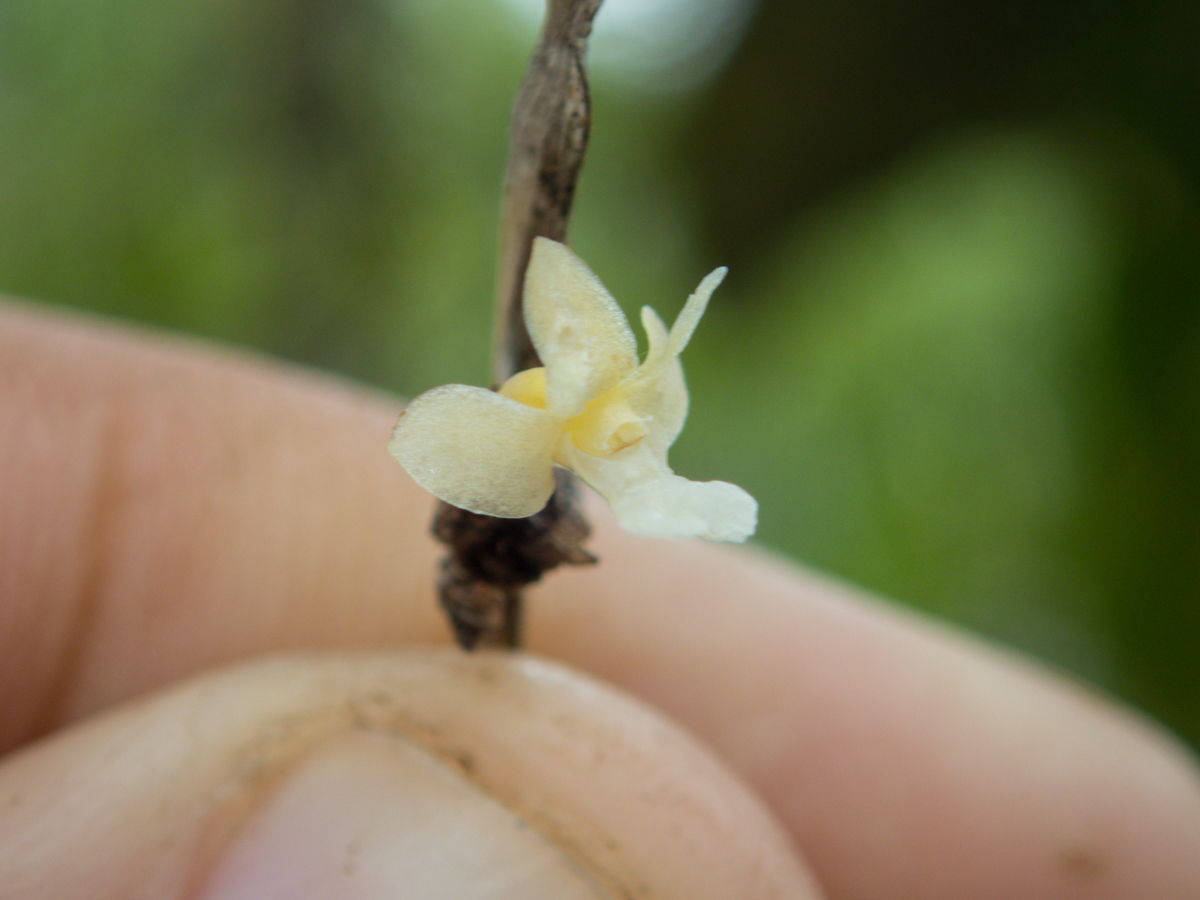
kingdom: Plantae
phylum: Tracheophyta
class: Liliopsida
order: Asparagales
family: Orchidaceae
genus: Dendrobium
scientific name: Dendrobium aloifolium
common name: Aloe-like dendrobium
